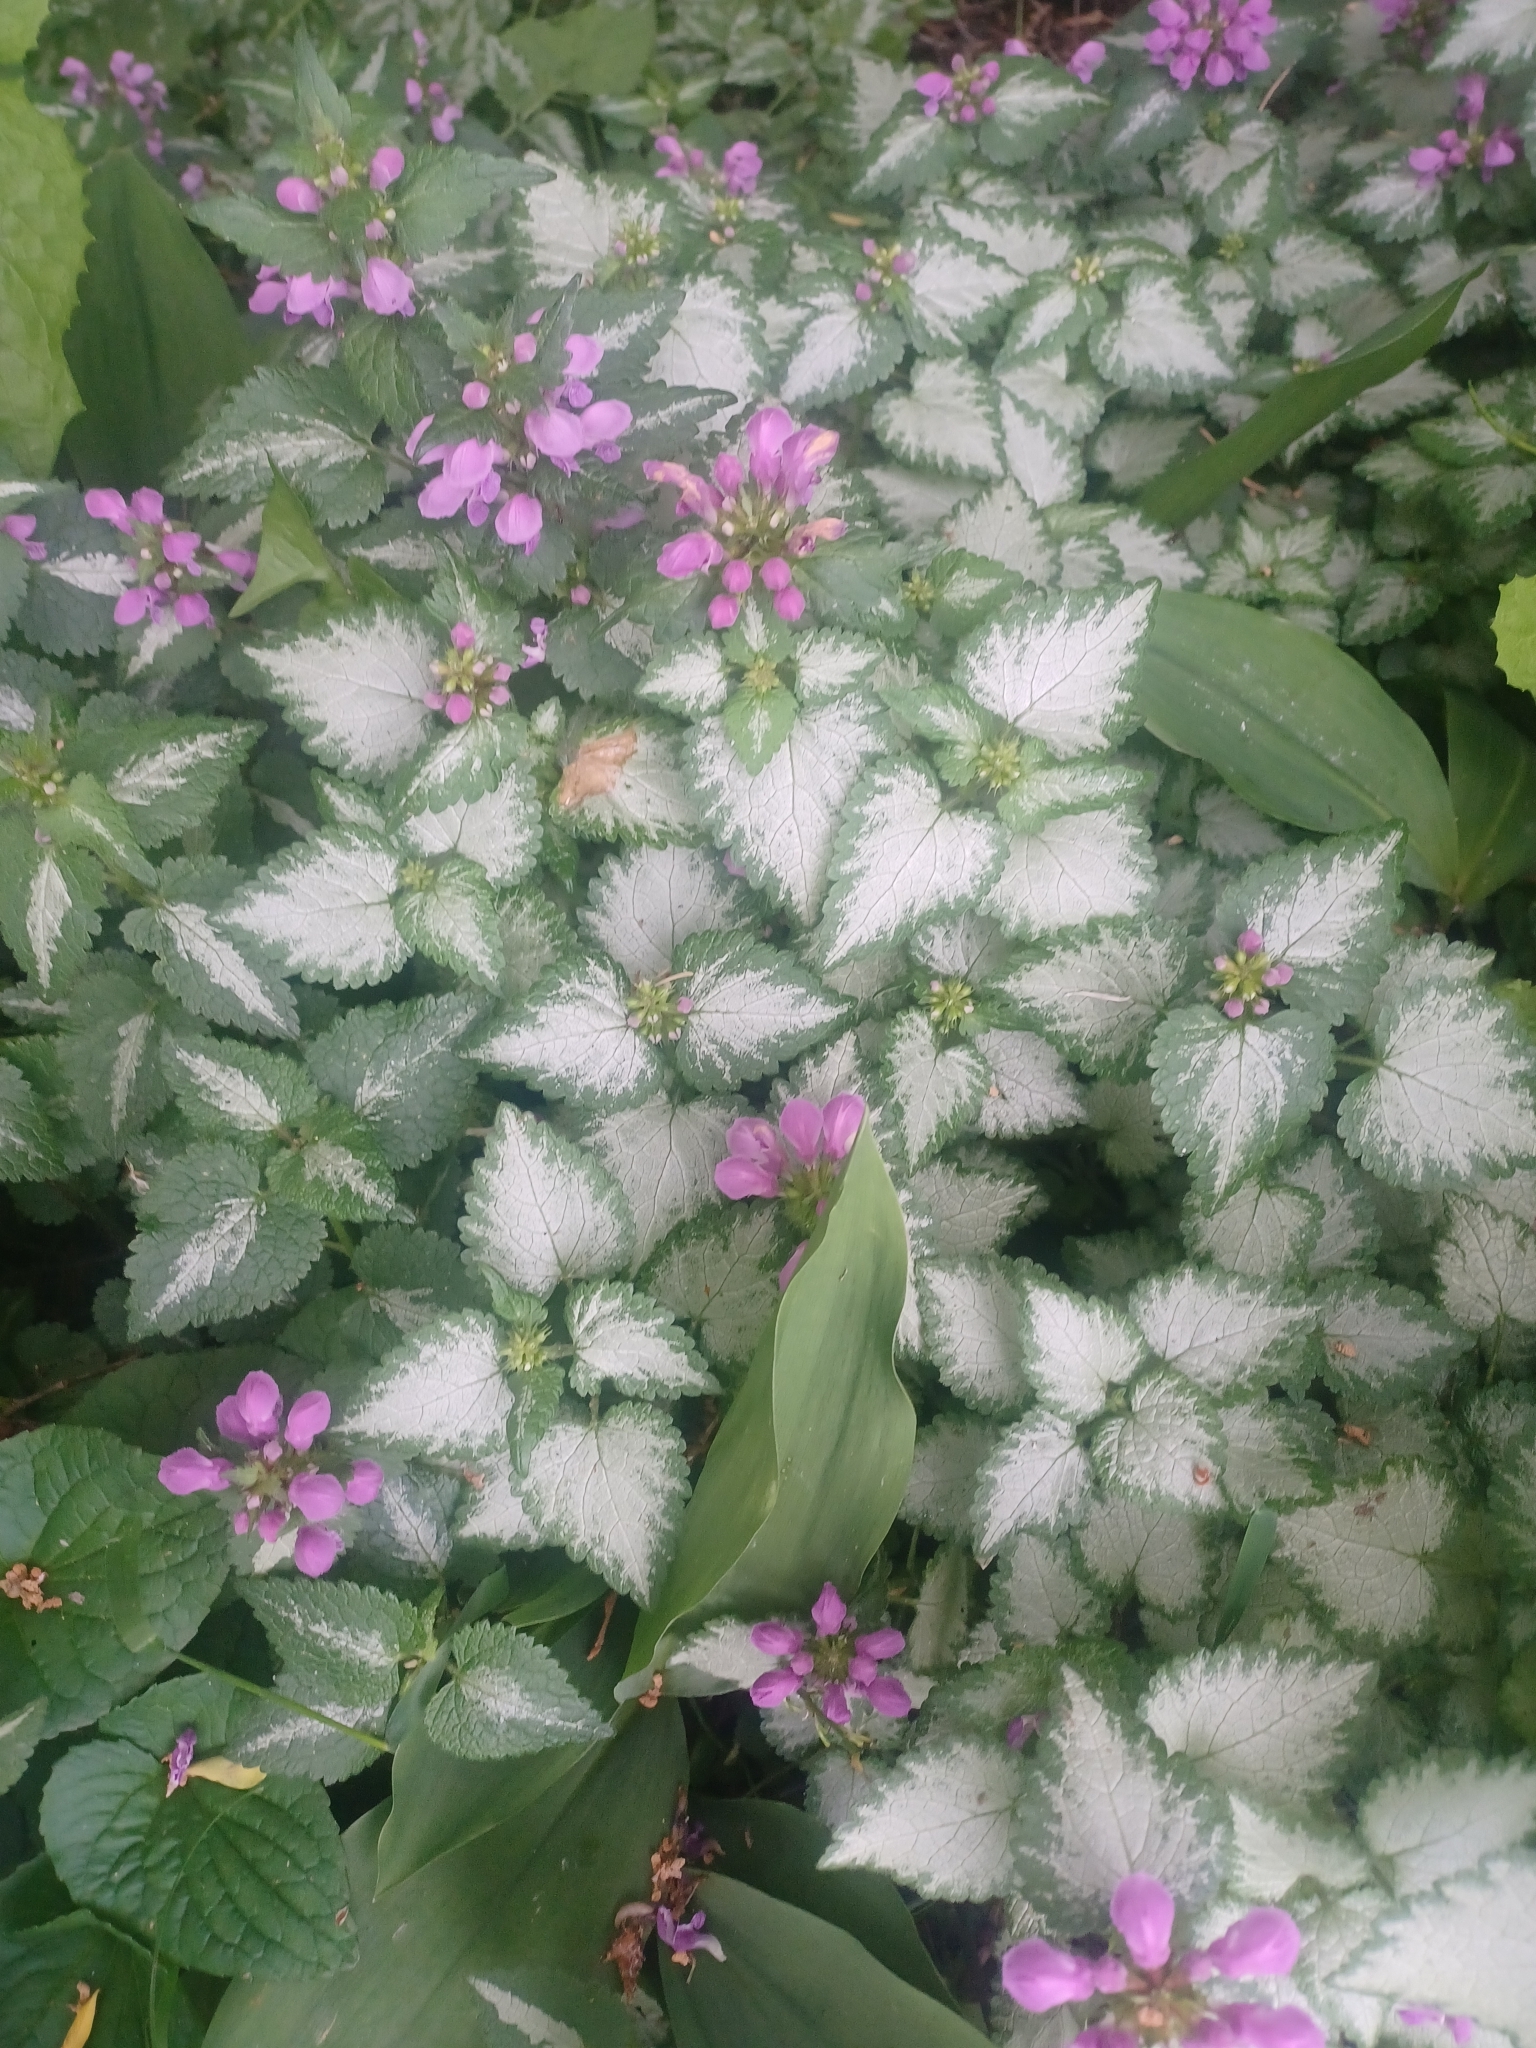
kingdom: Plantae
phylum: Tracheophyta
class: Magnoliopsida
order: Lamiales
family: Lamiaceae
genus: Lamium
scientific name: Lamium maculatum
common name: Spotted dead-nettle
